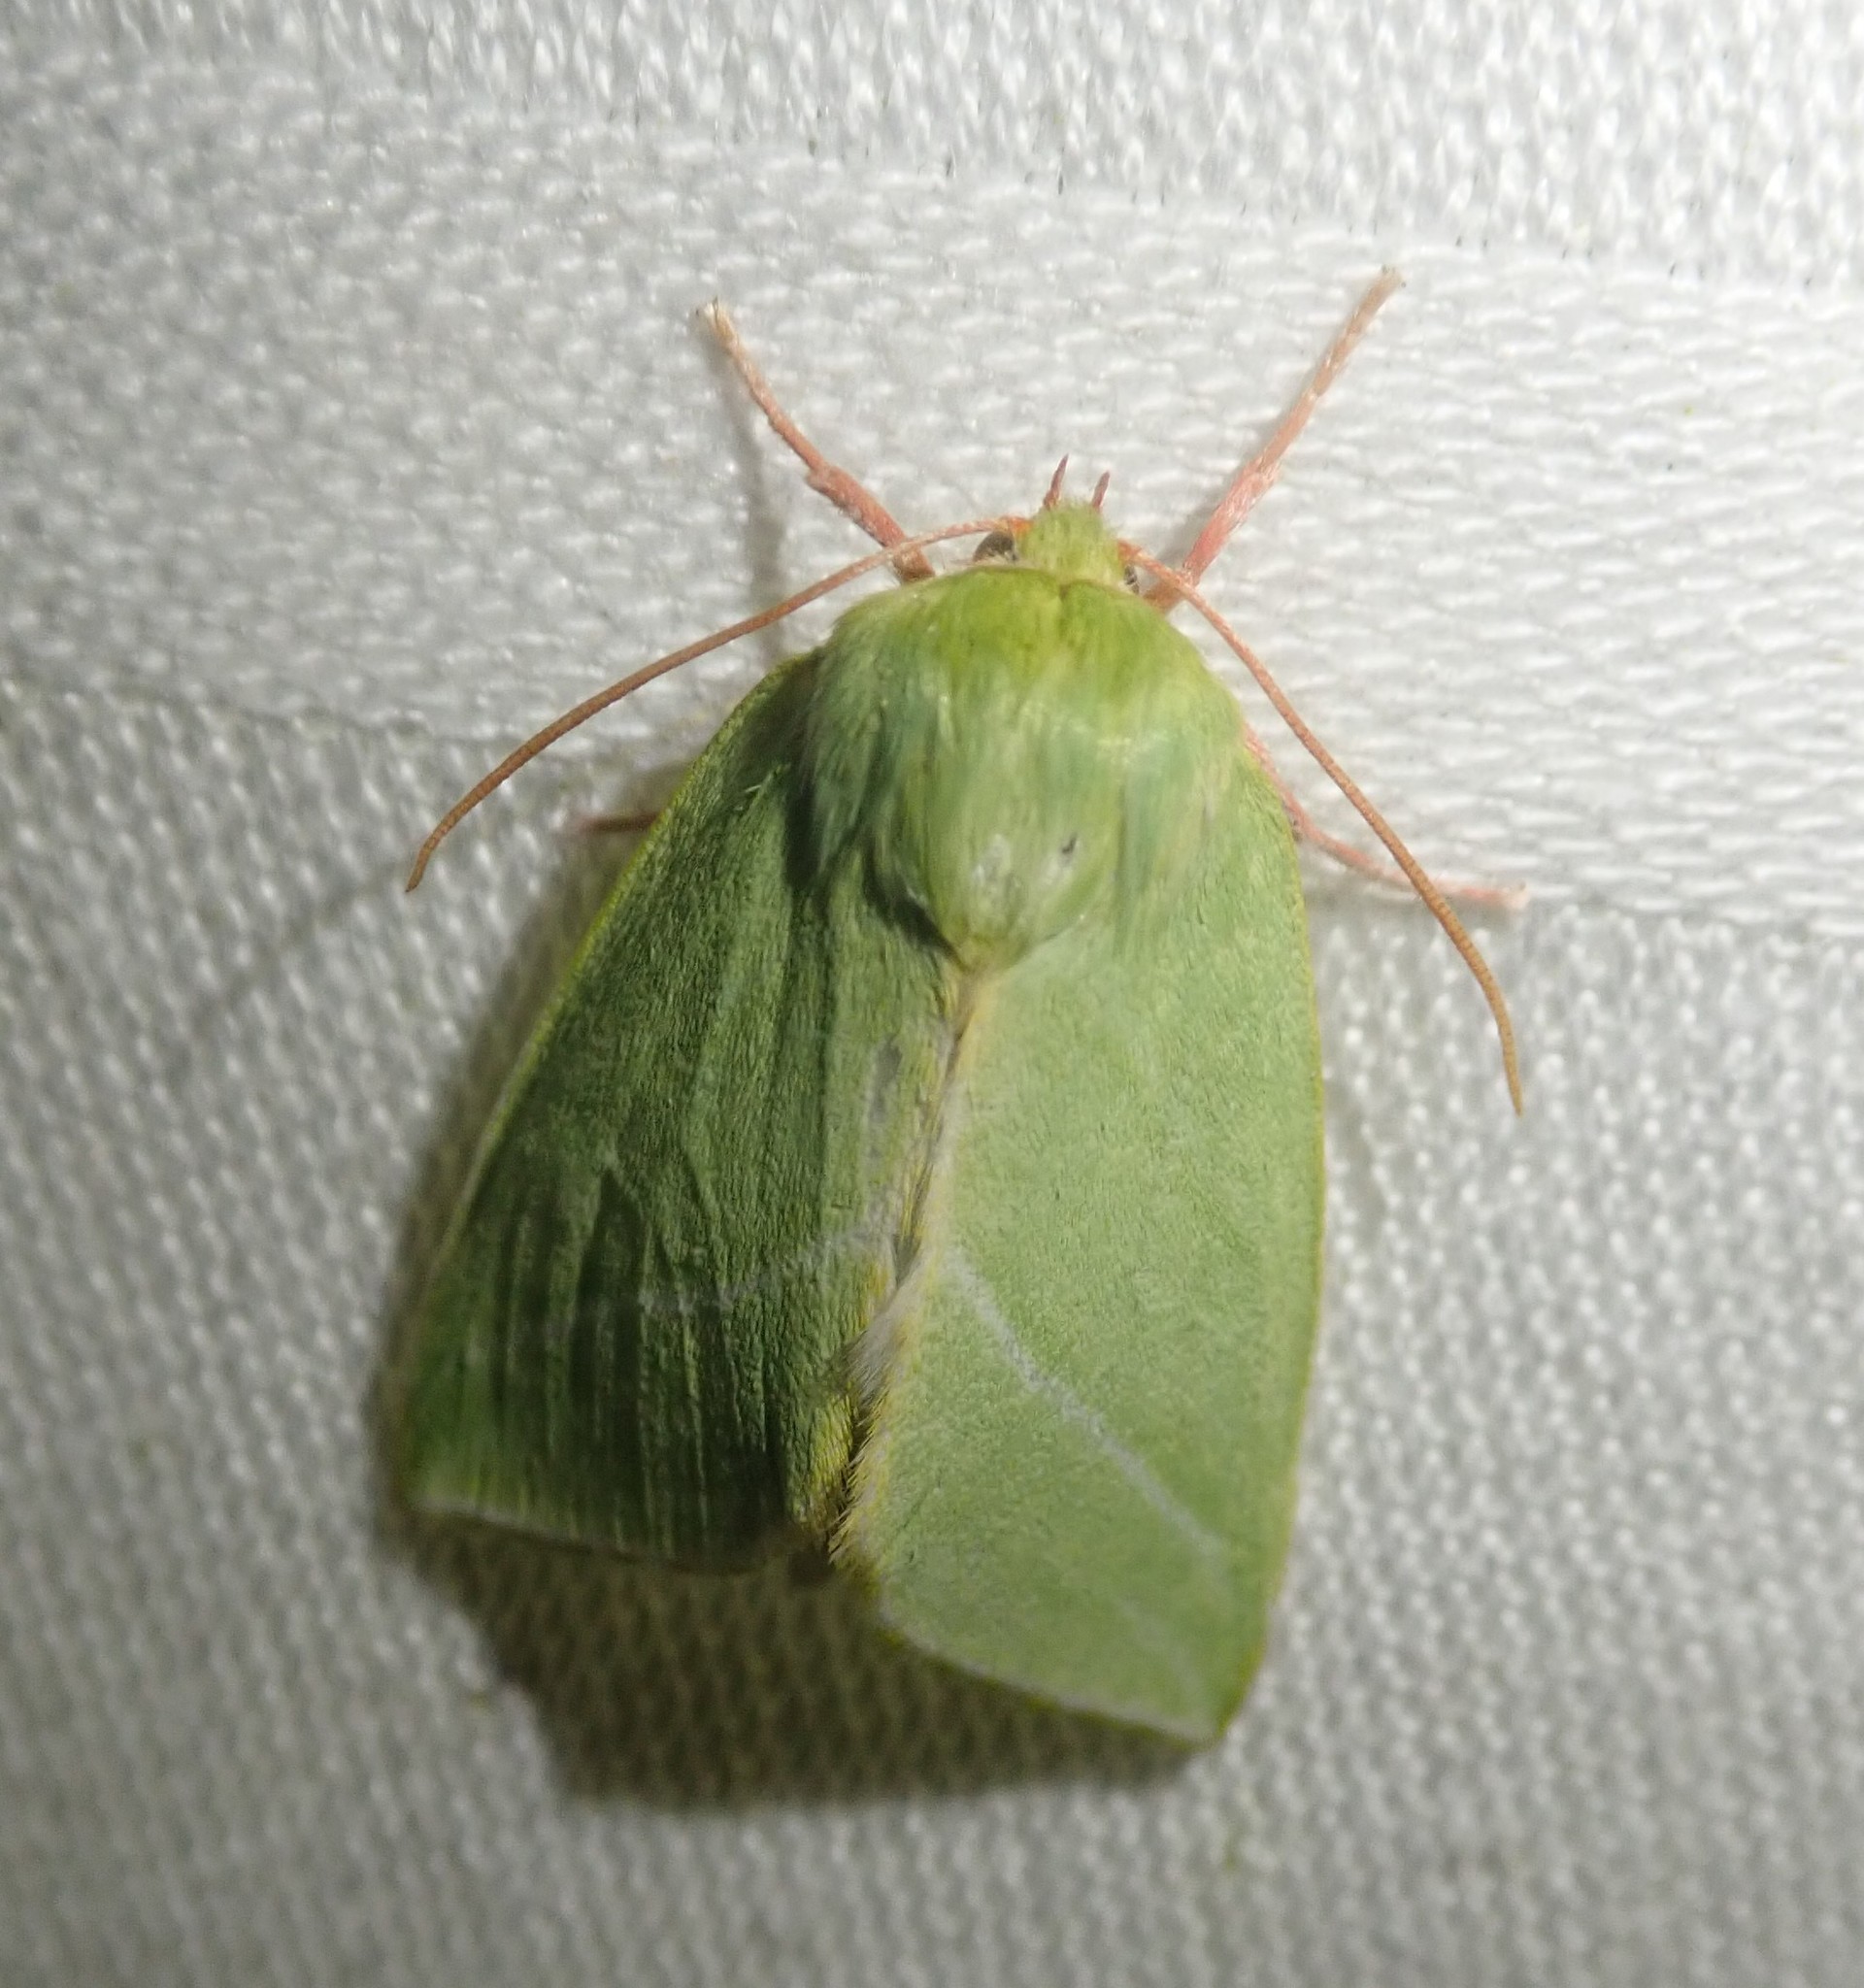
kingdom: Animalia
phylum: Arthropoda
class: Insecta
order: Lepidoptera
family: Nolidae
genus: Pseudoips
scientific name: Pseudoips prasinana
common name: Green silver-lines
